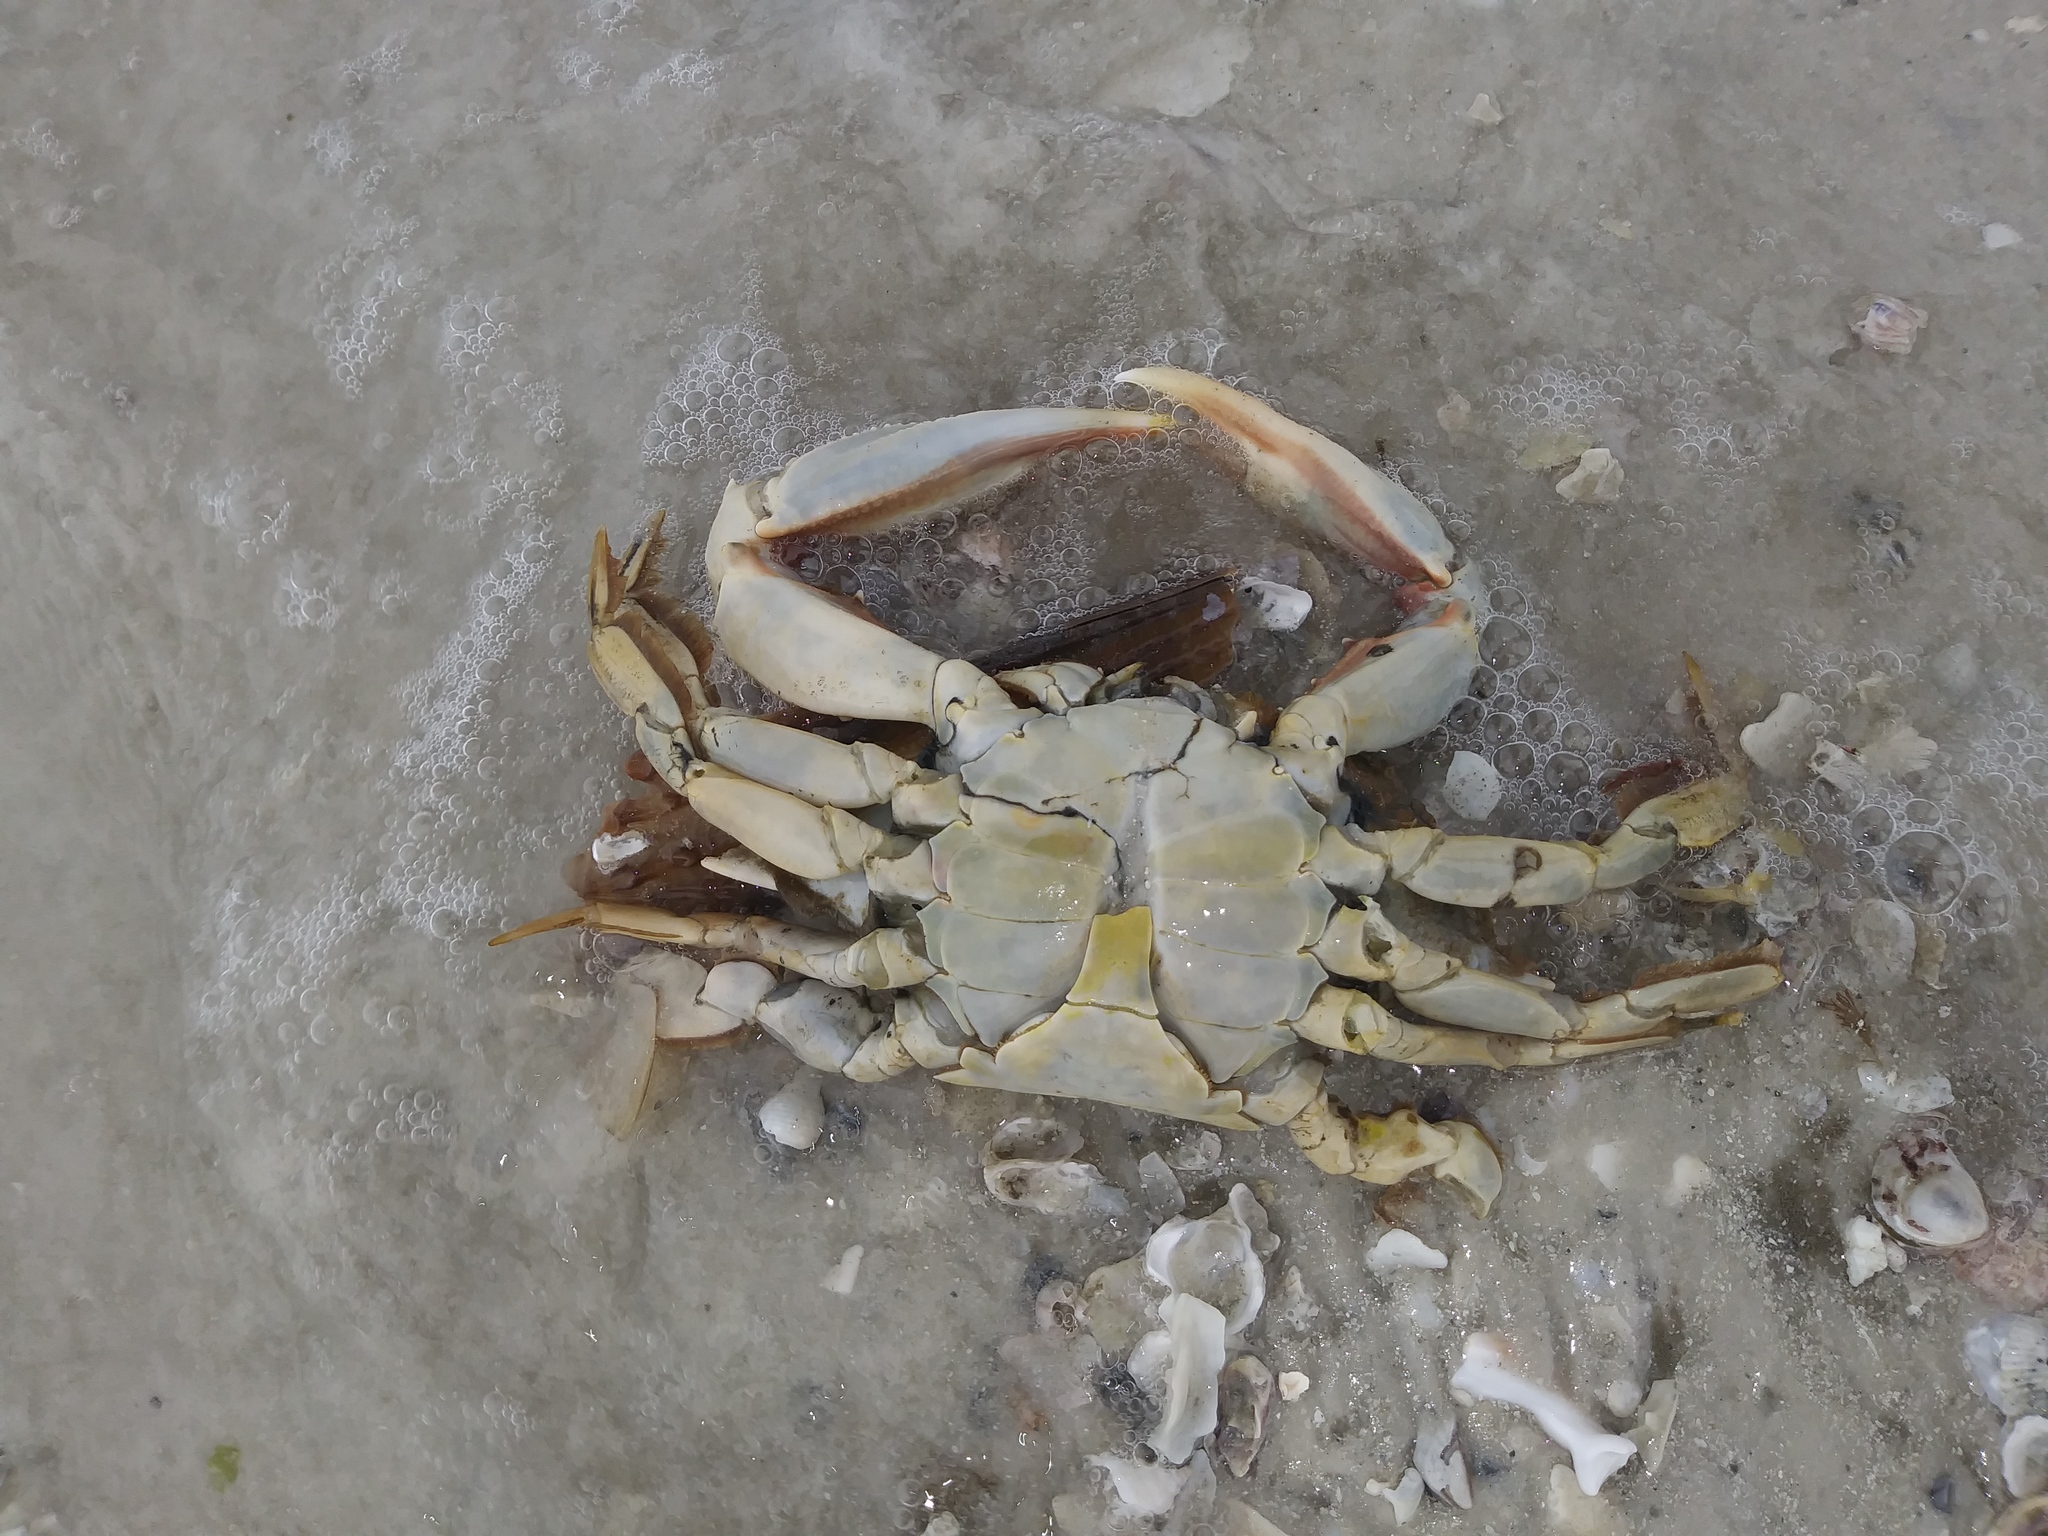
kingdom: Animalia
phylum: Arthropoda
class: Malacostraca
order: Decapoda
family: Portunidae
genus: Arenaeus
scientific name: Arenaeus cribrarius
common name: Speckled crab
